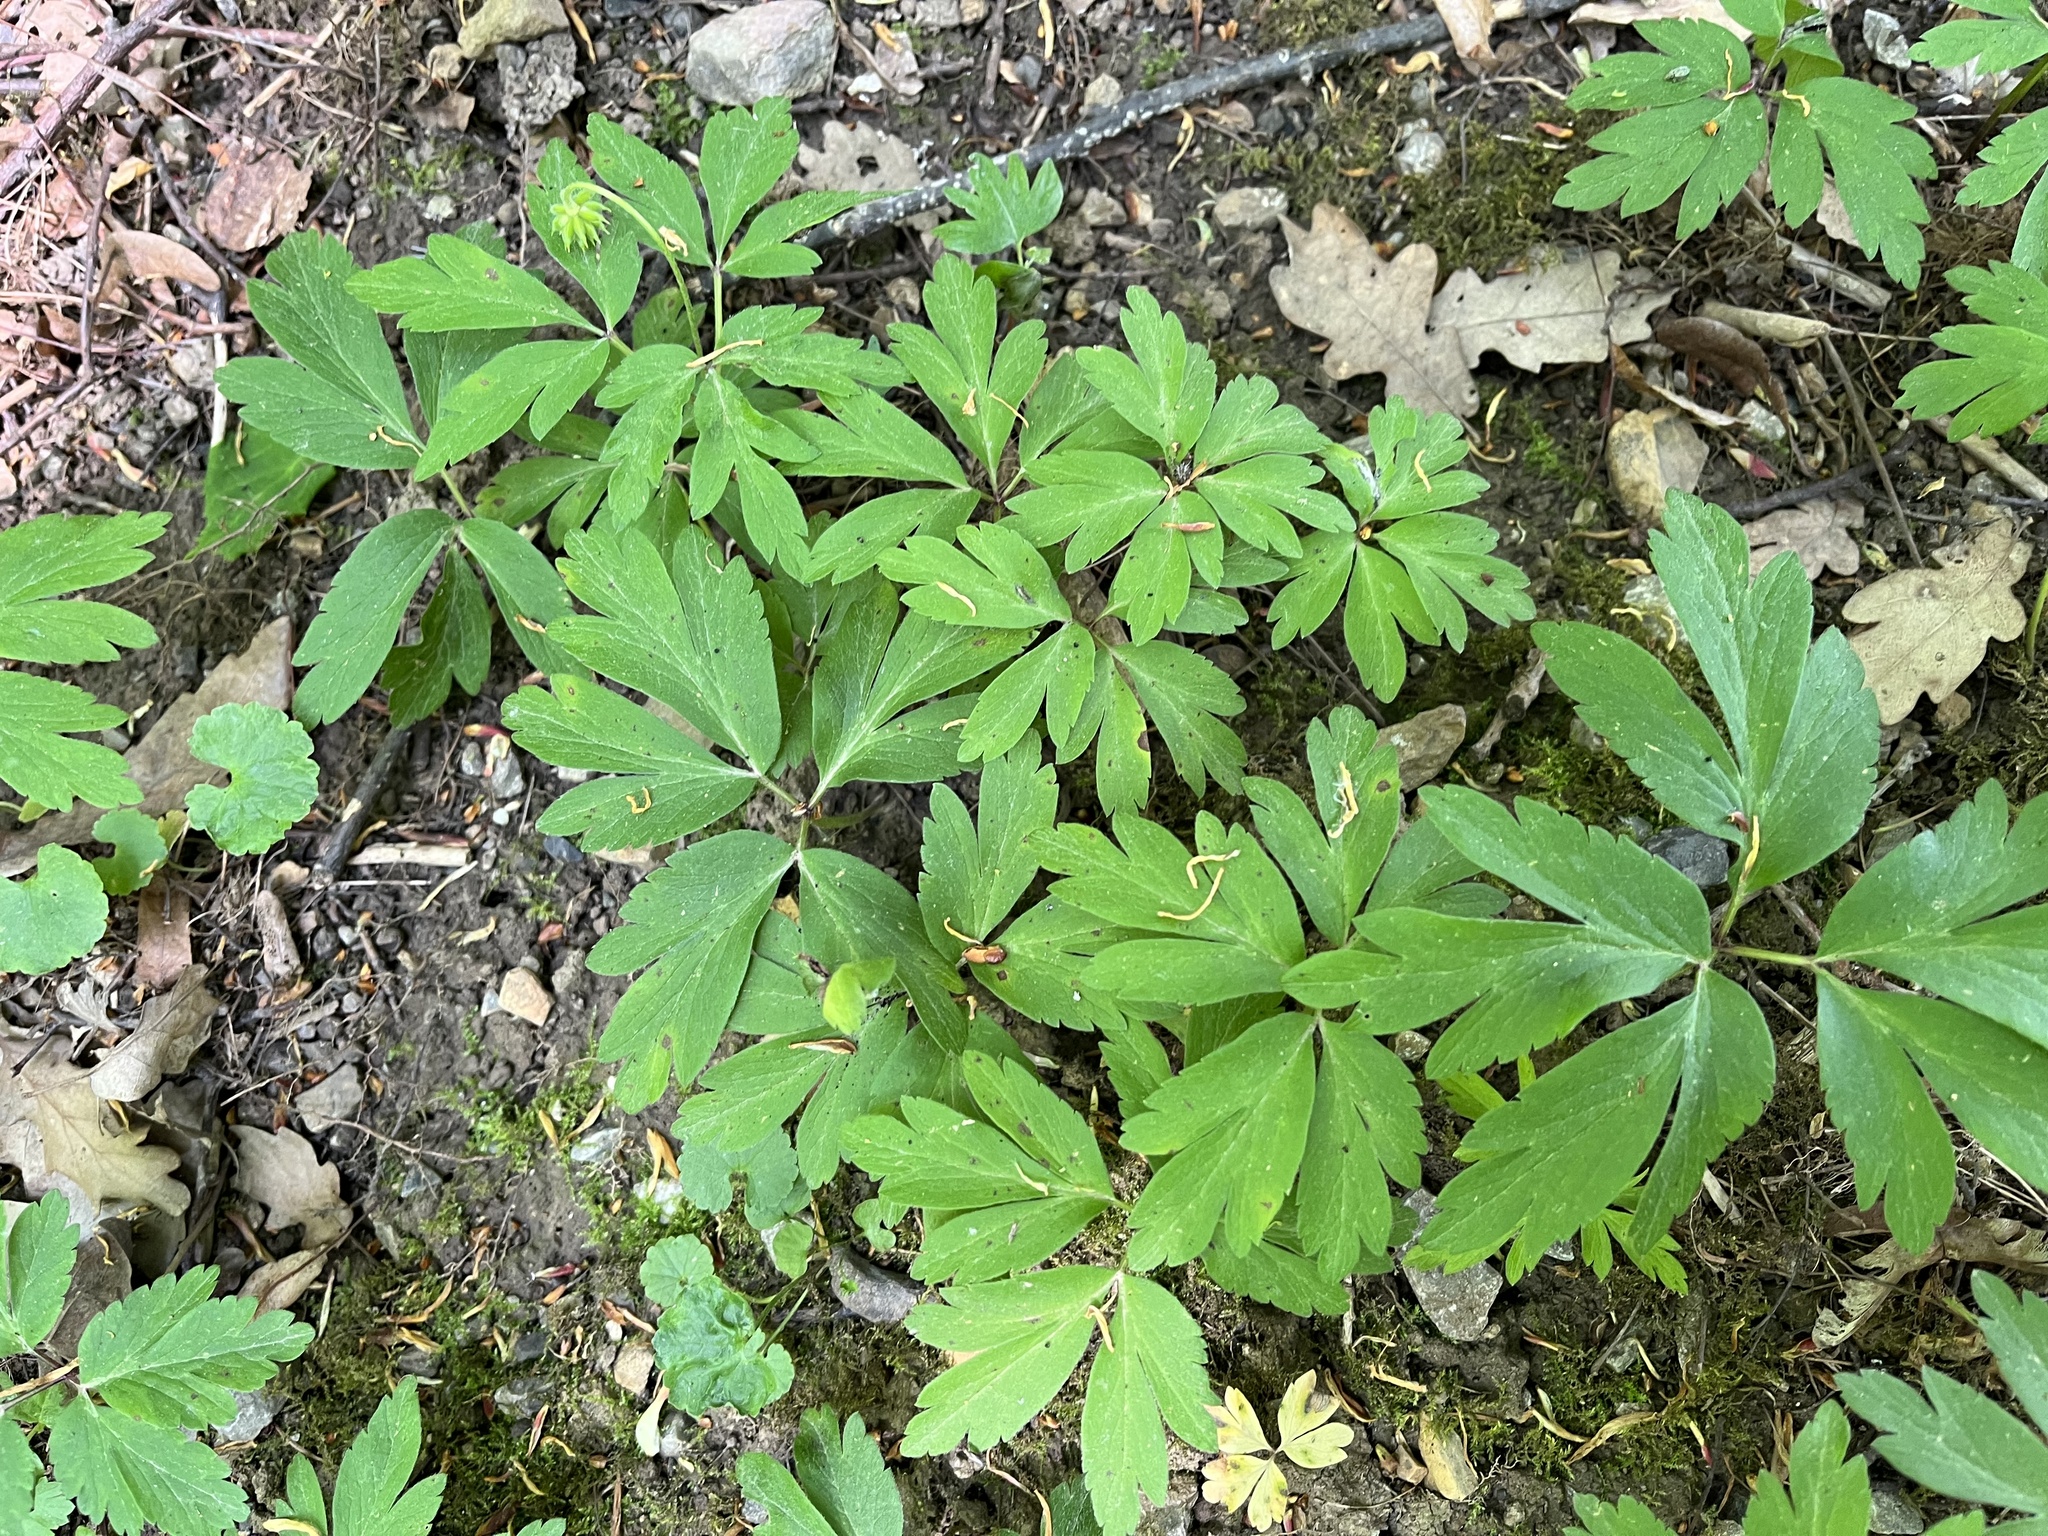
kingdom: Plantae
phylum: Tracheophyta
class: Magnoliopsida
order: Ranunculales
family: Ranunculaceae
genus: Anemone
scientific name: Anemone nemorosa
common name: Wood anemone
